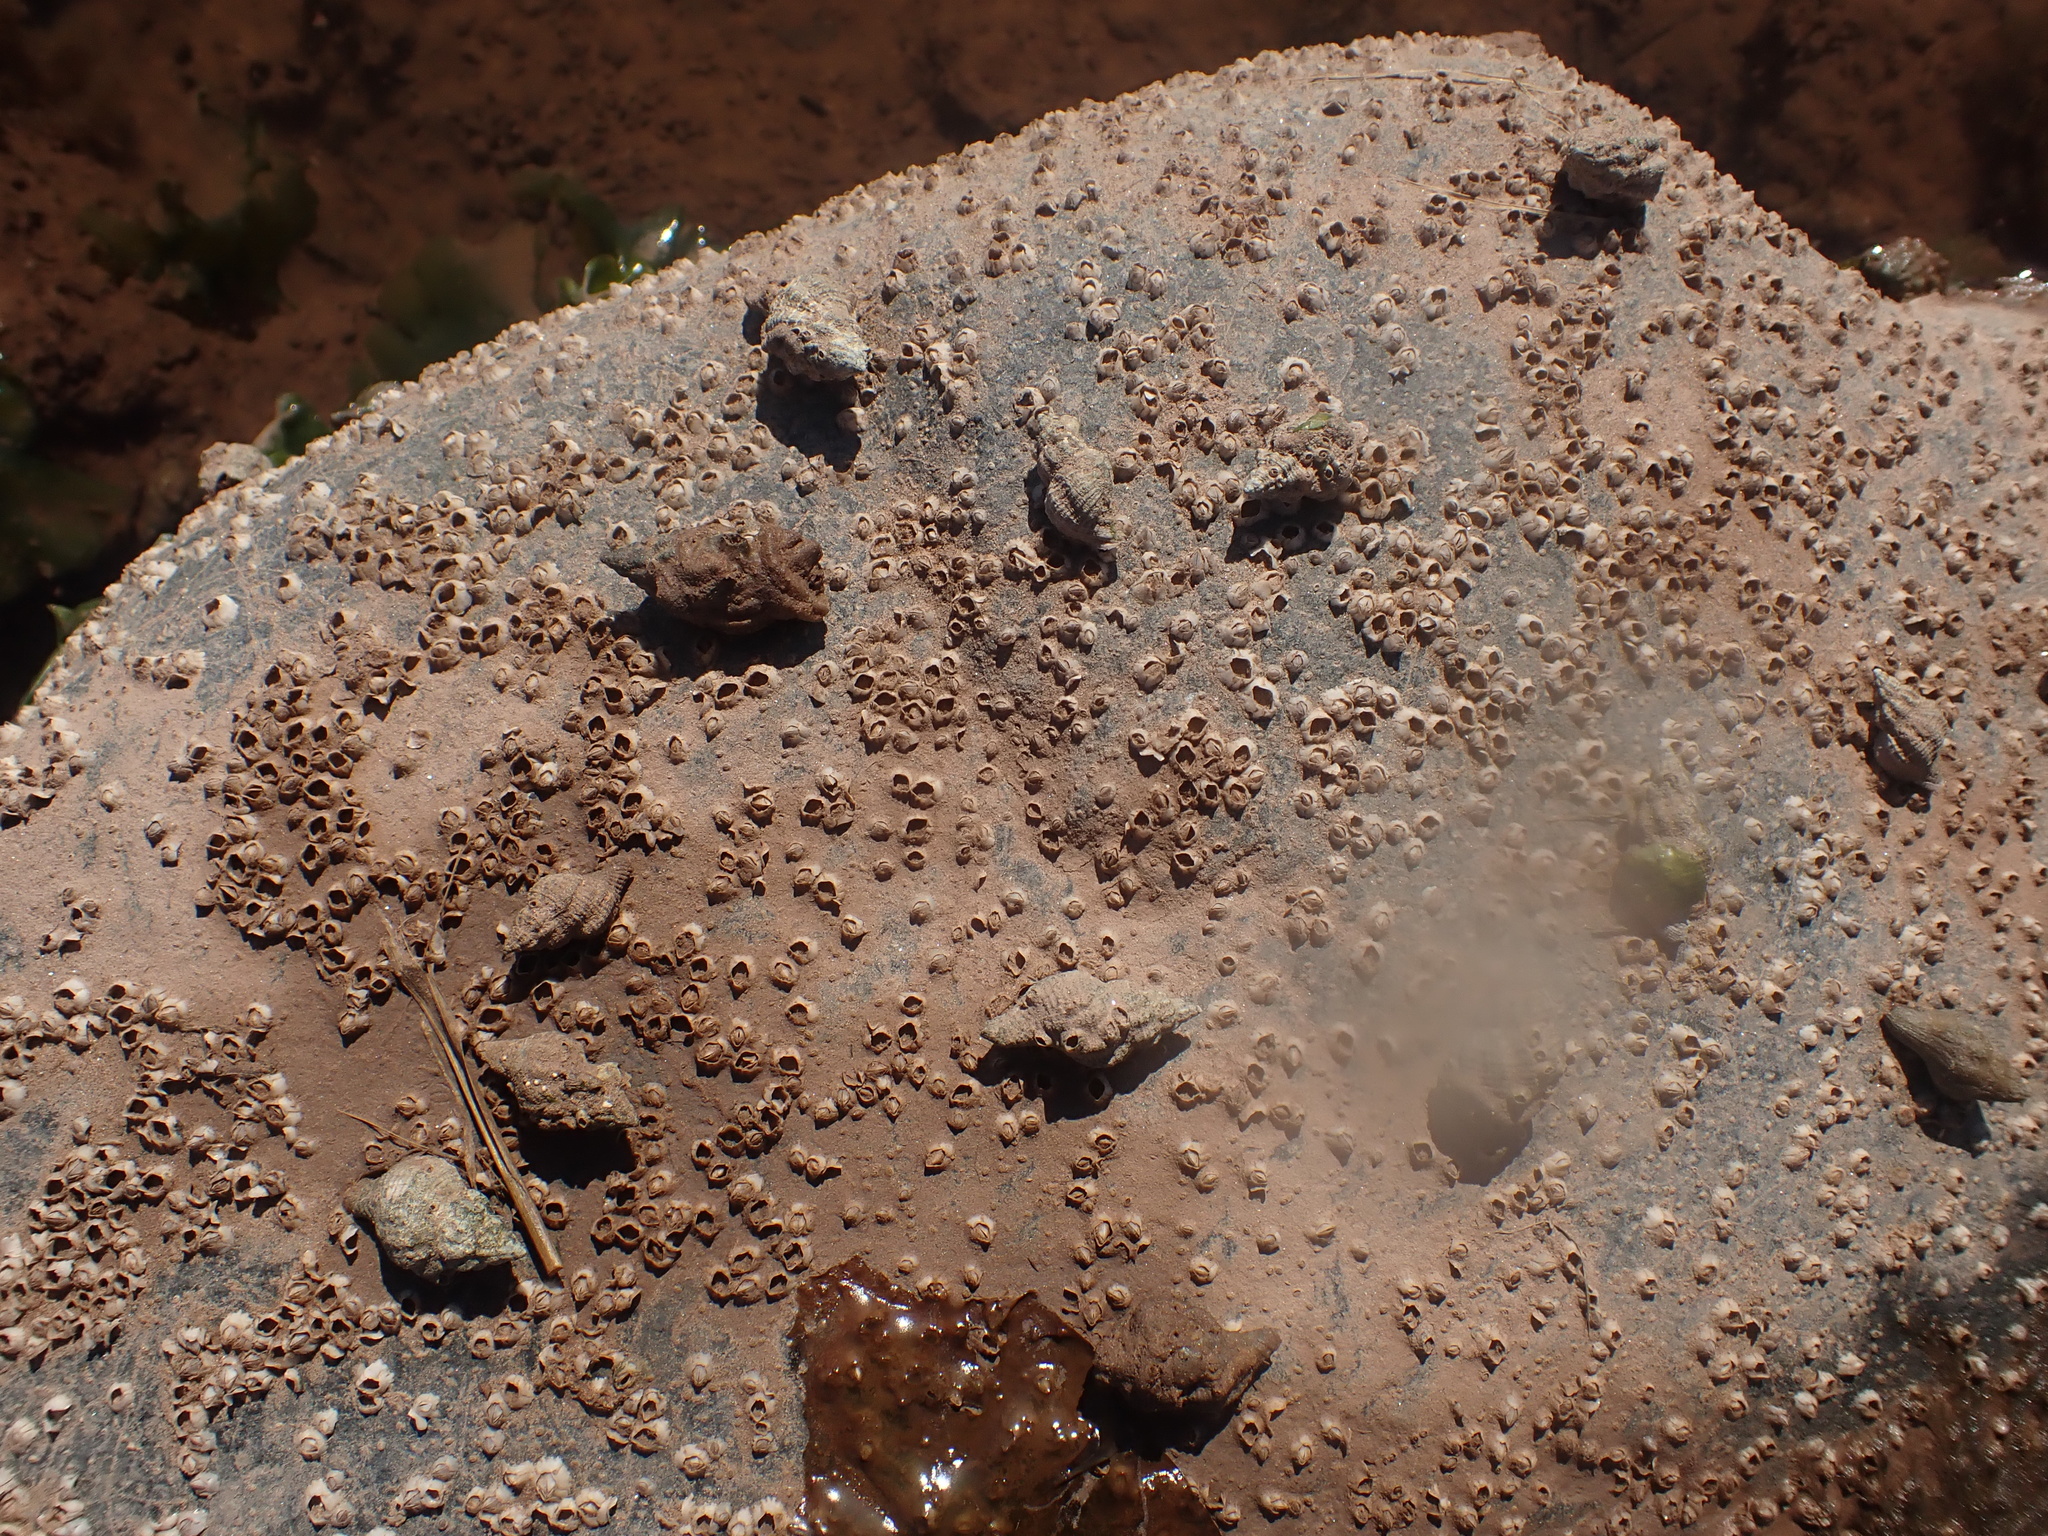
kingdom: Animalia
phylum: Mollusca
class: Gastropoda
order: Neogastropoda
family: Muricidae
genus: Urosalpinx
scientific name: Urosalpinx cinerea
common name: American sting winkle
